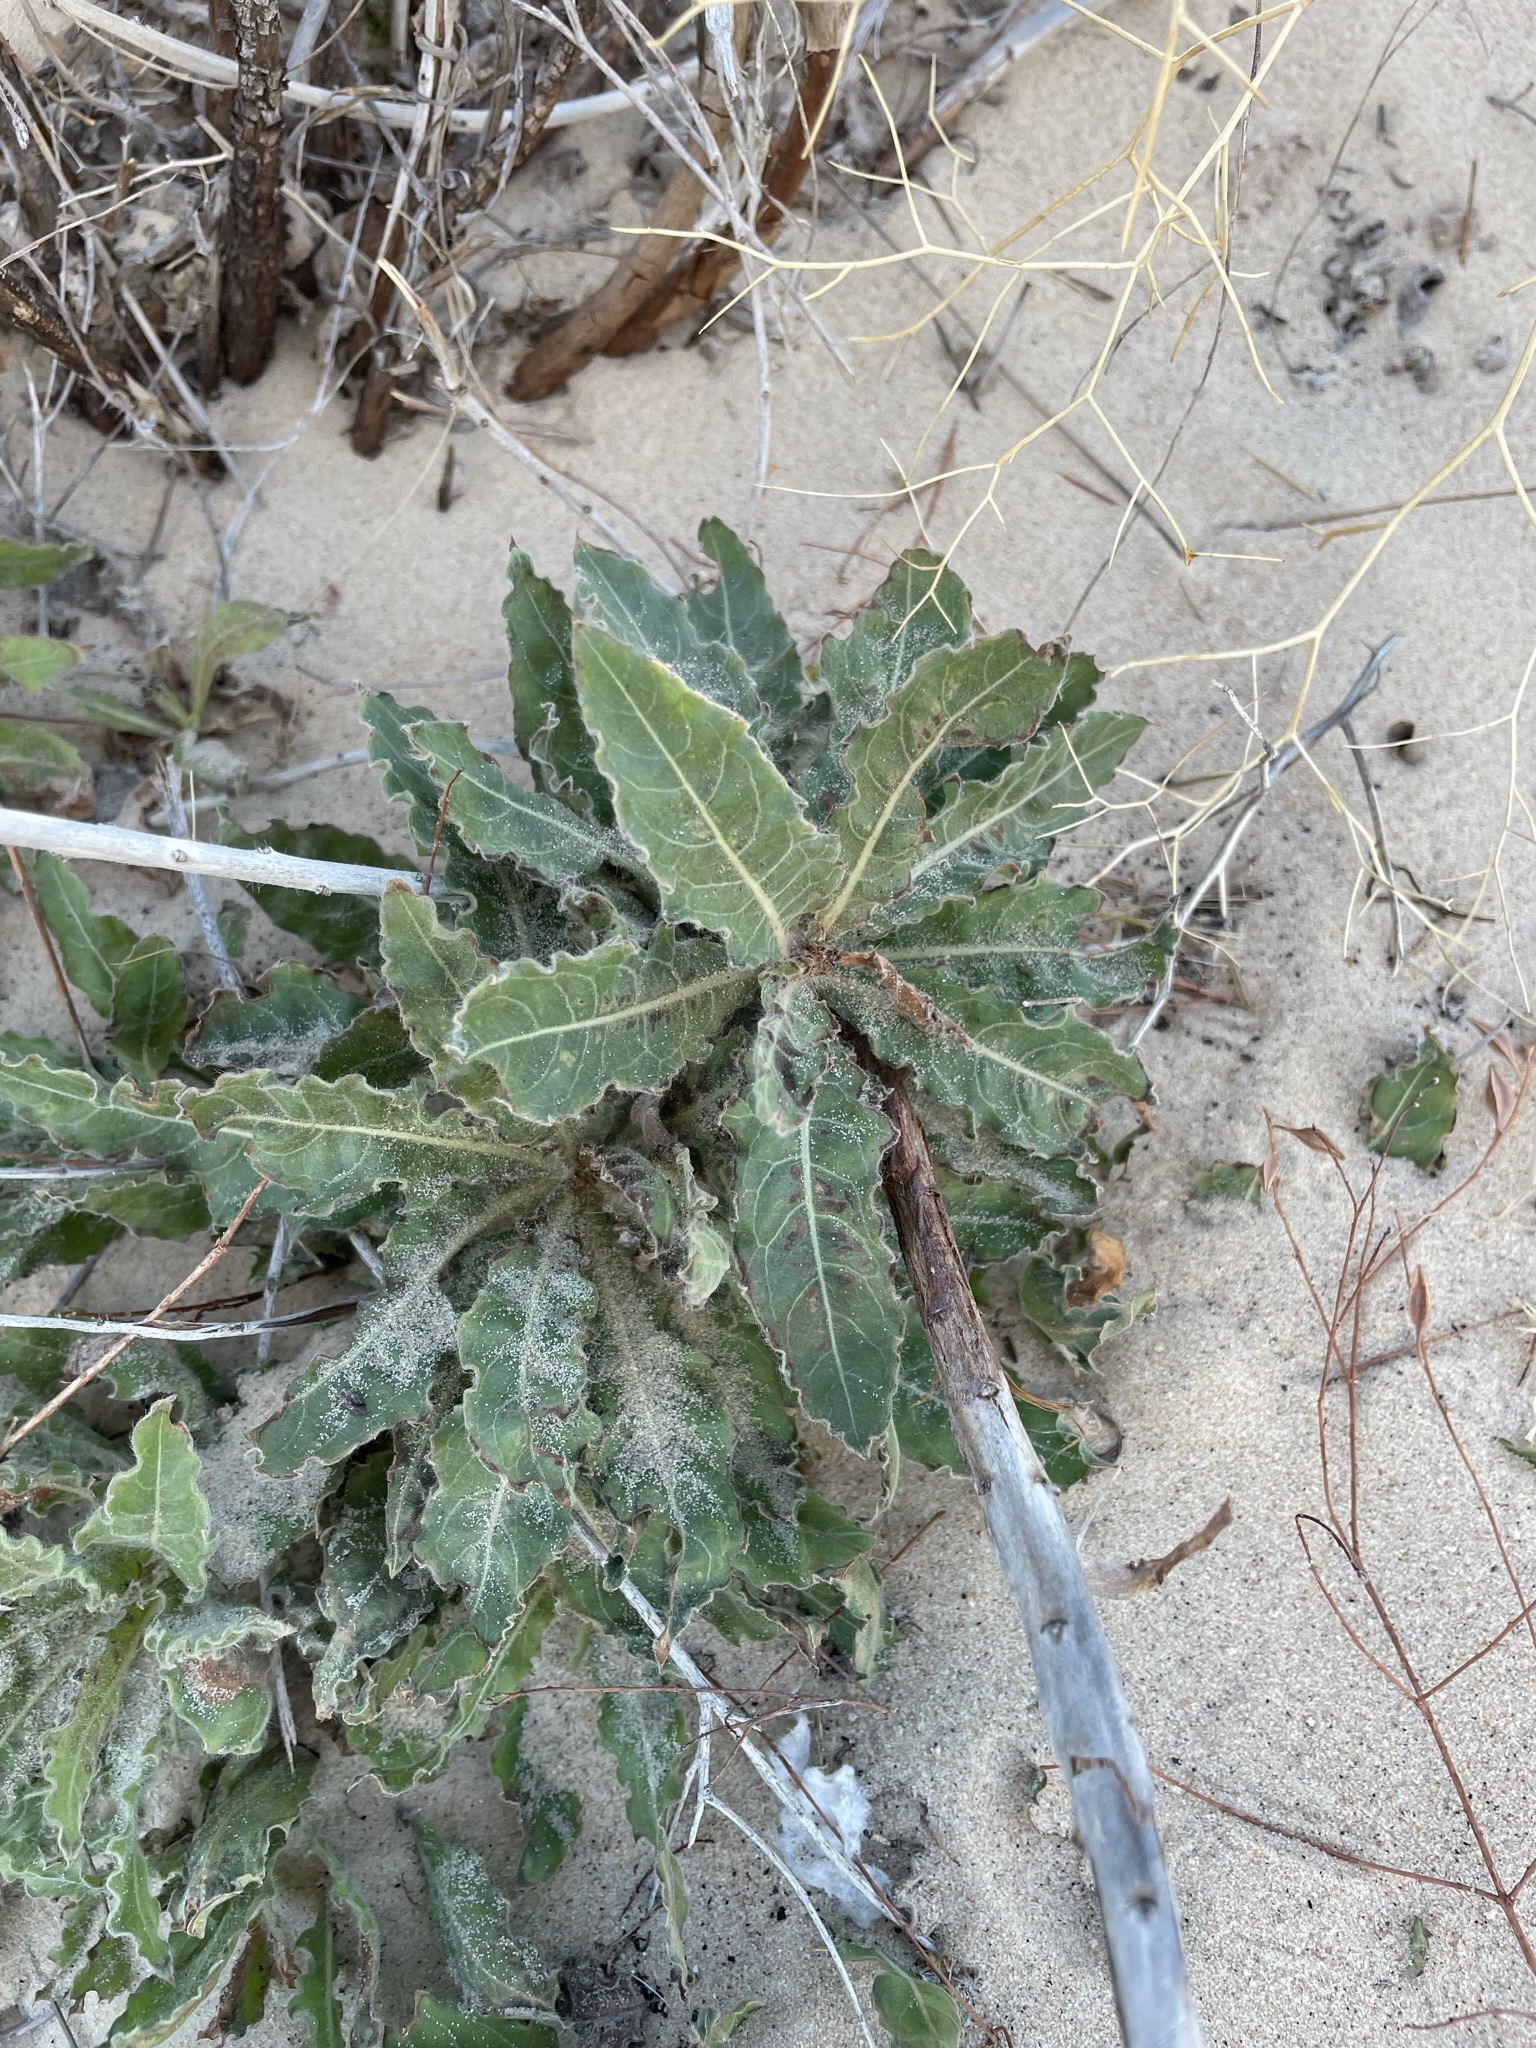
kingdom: Plantae
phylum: Tracheophyta
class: Magnoliopsida
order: Myrtales
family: Onagraceae
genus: Oenothera
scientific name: Oenothera cinerea
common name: Woolly beeblossom
